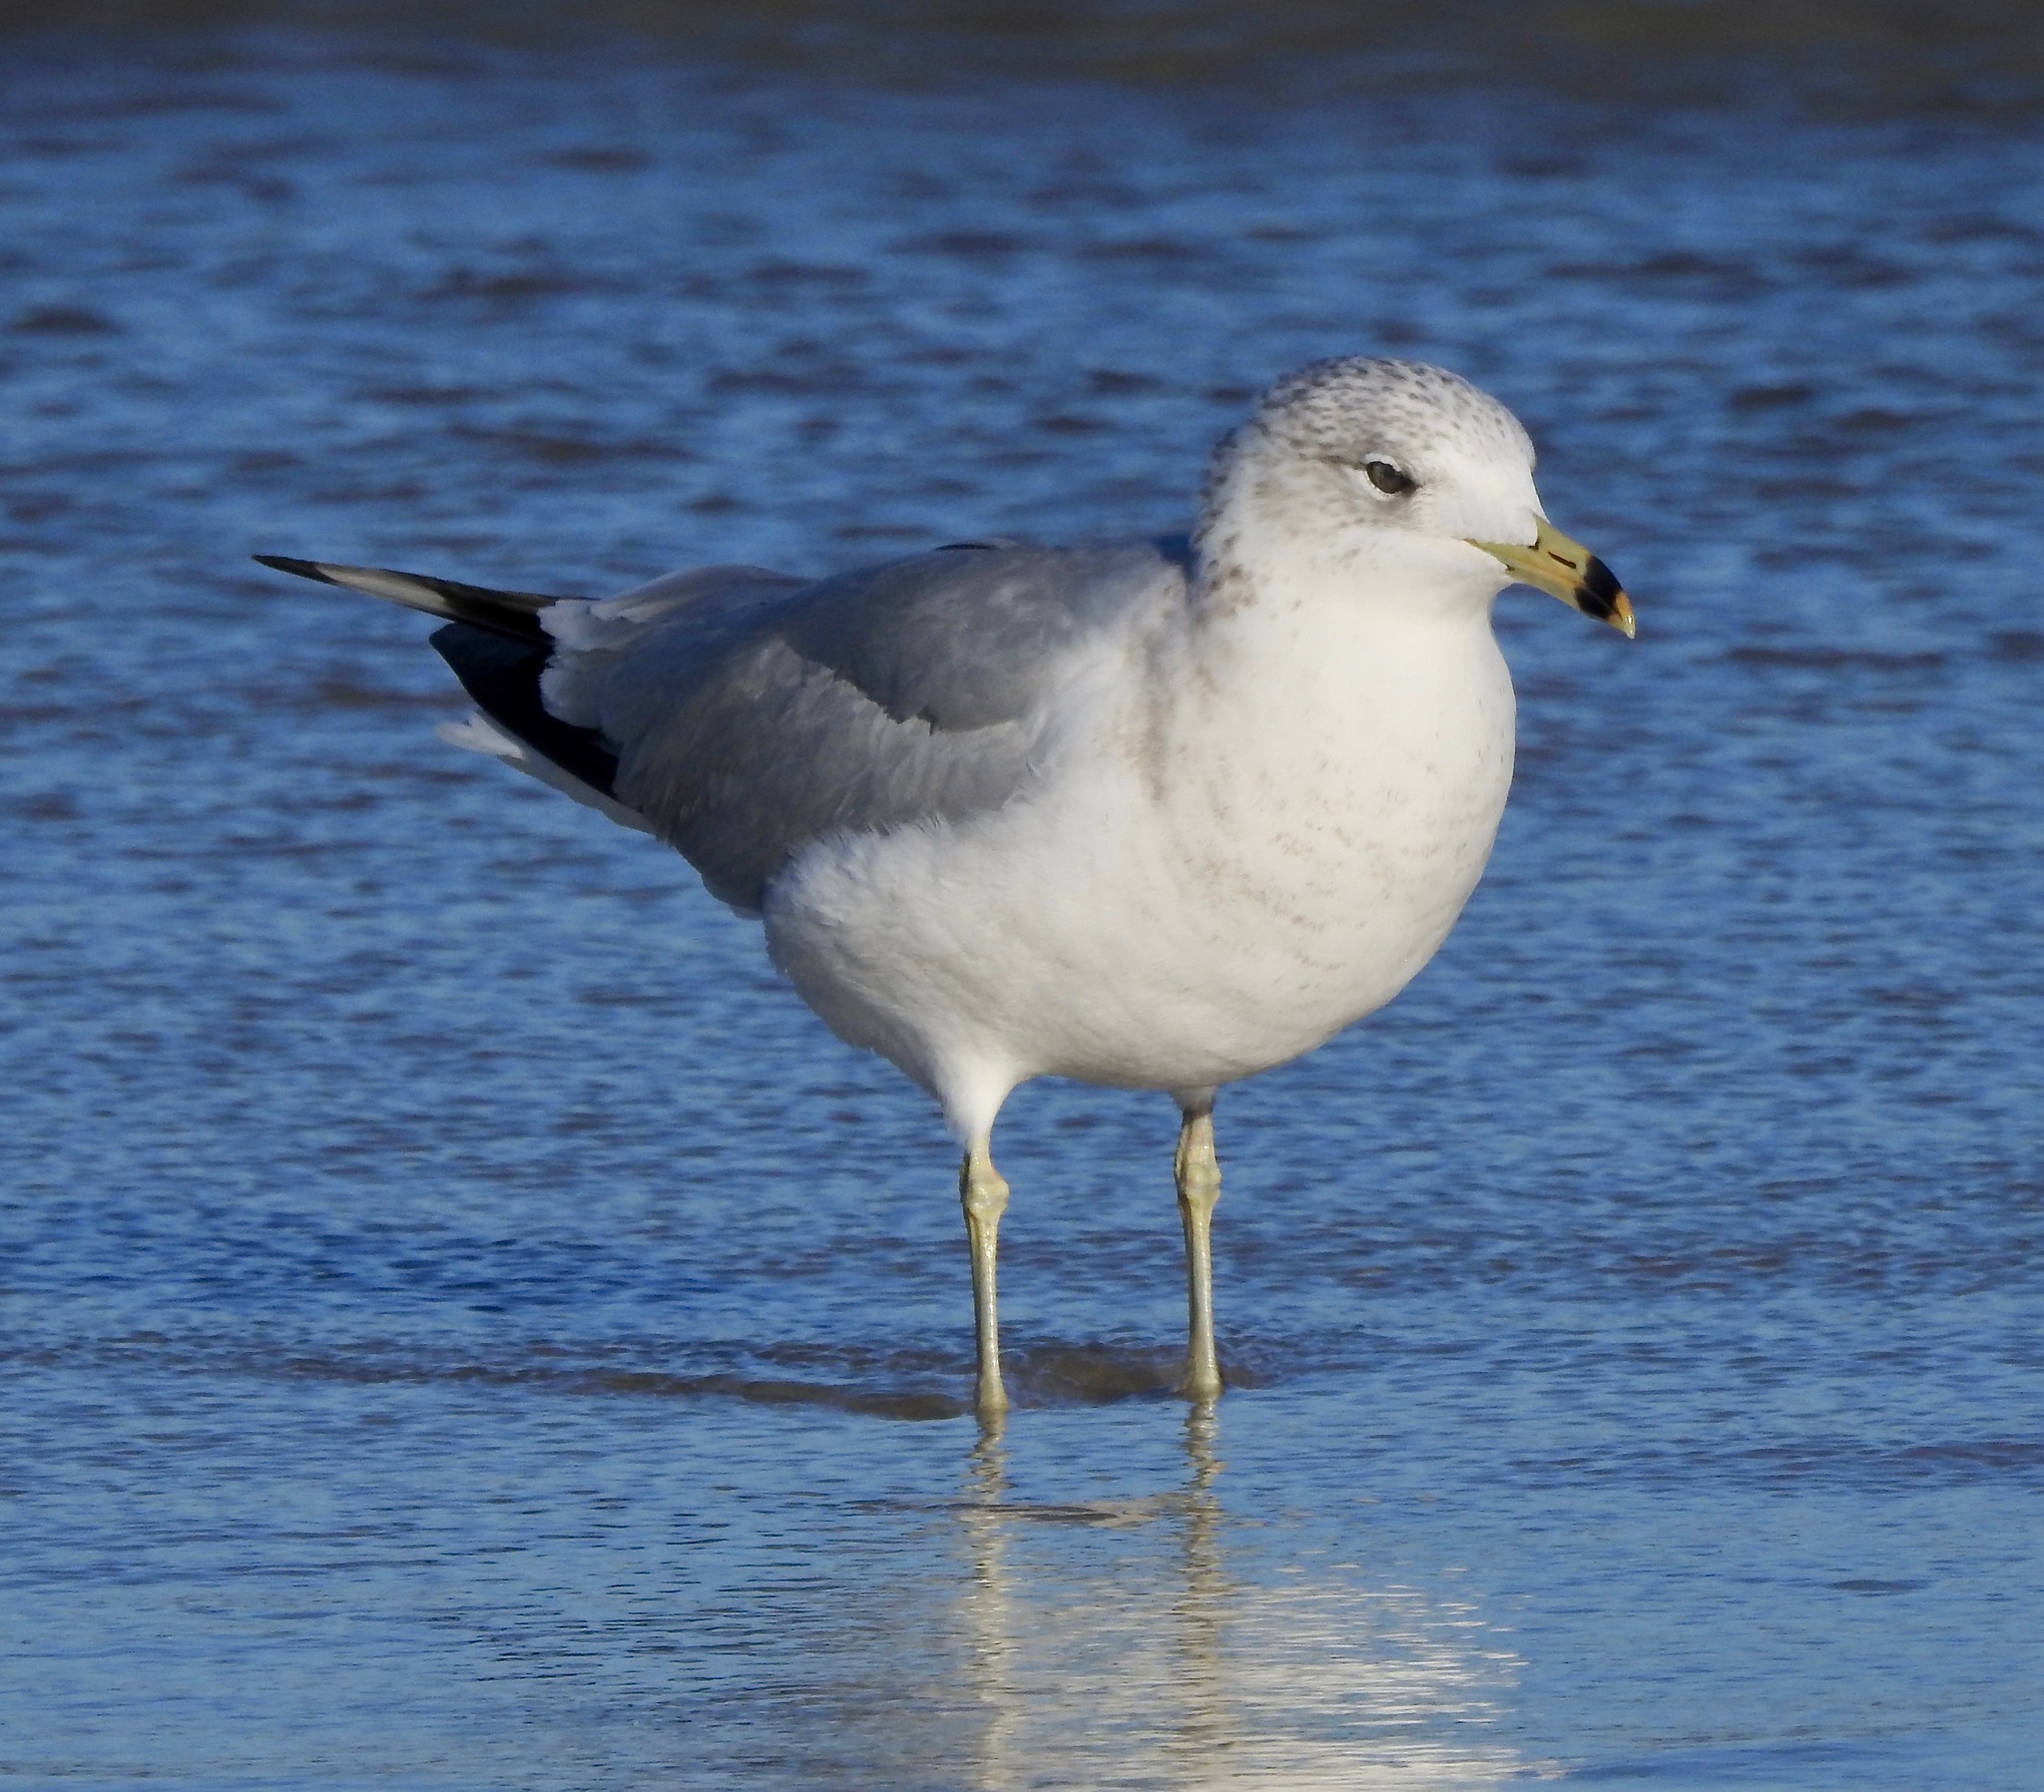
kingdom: Animalia
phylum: Chordata
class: Aves
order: Charadriiformes
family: Laridae
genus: Larus
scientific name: Larus delawarensis
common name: Ring-billed gull
